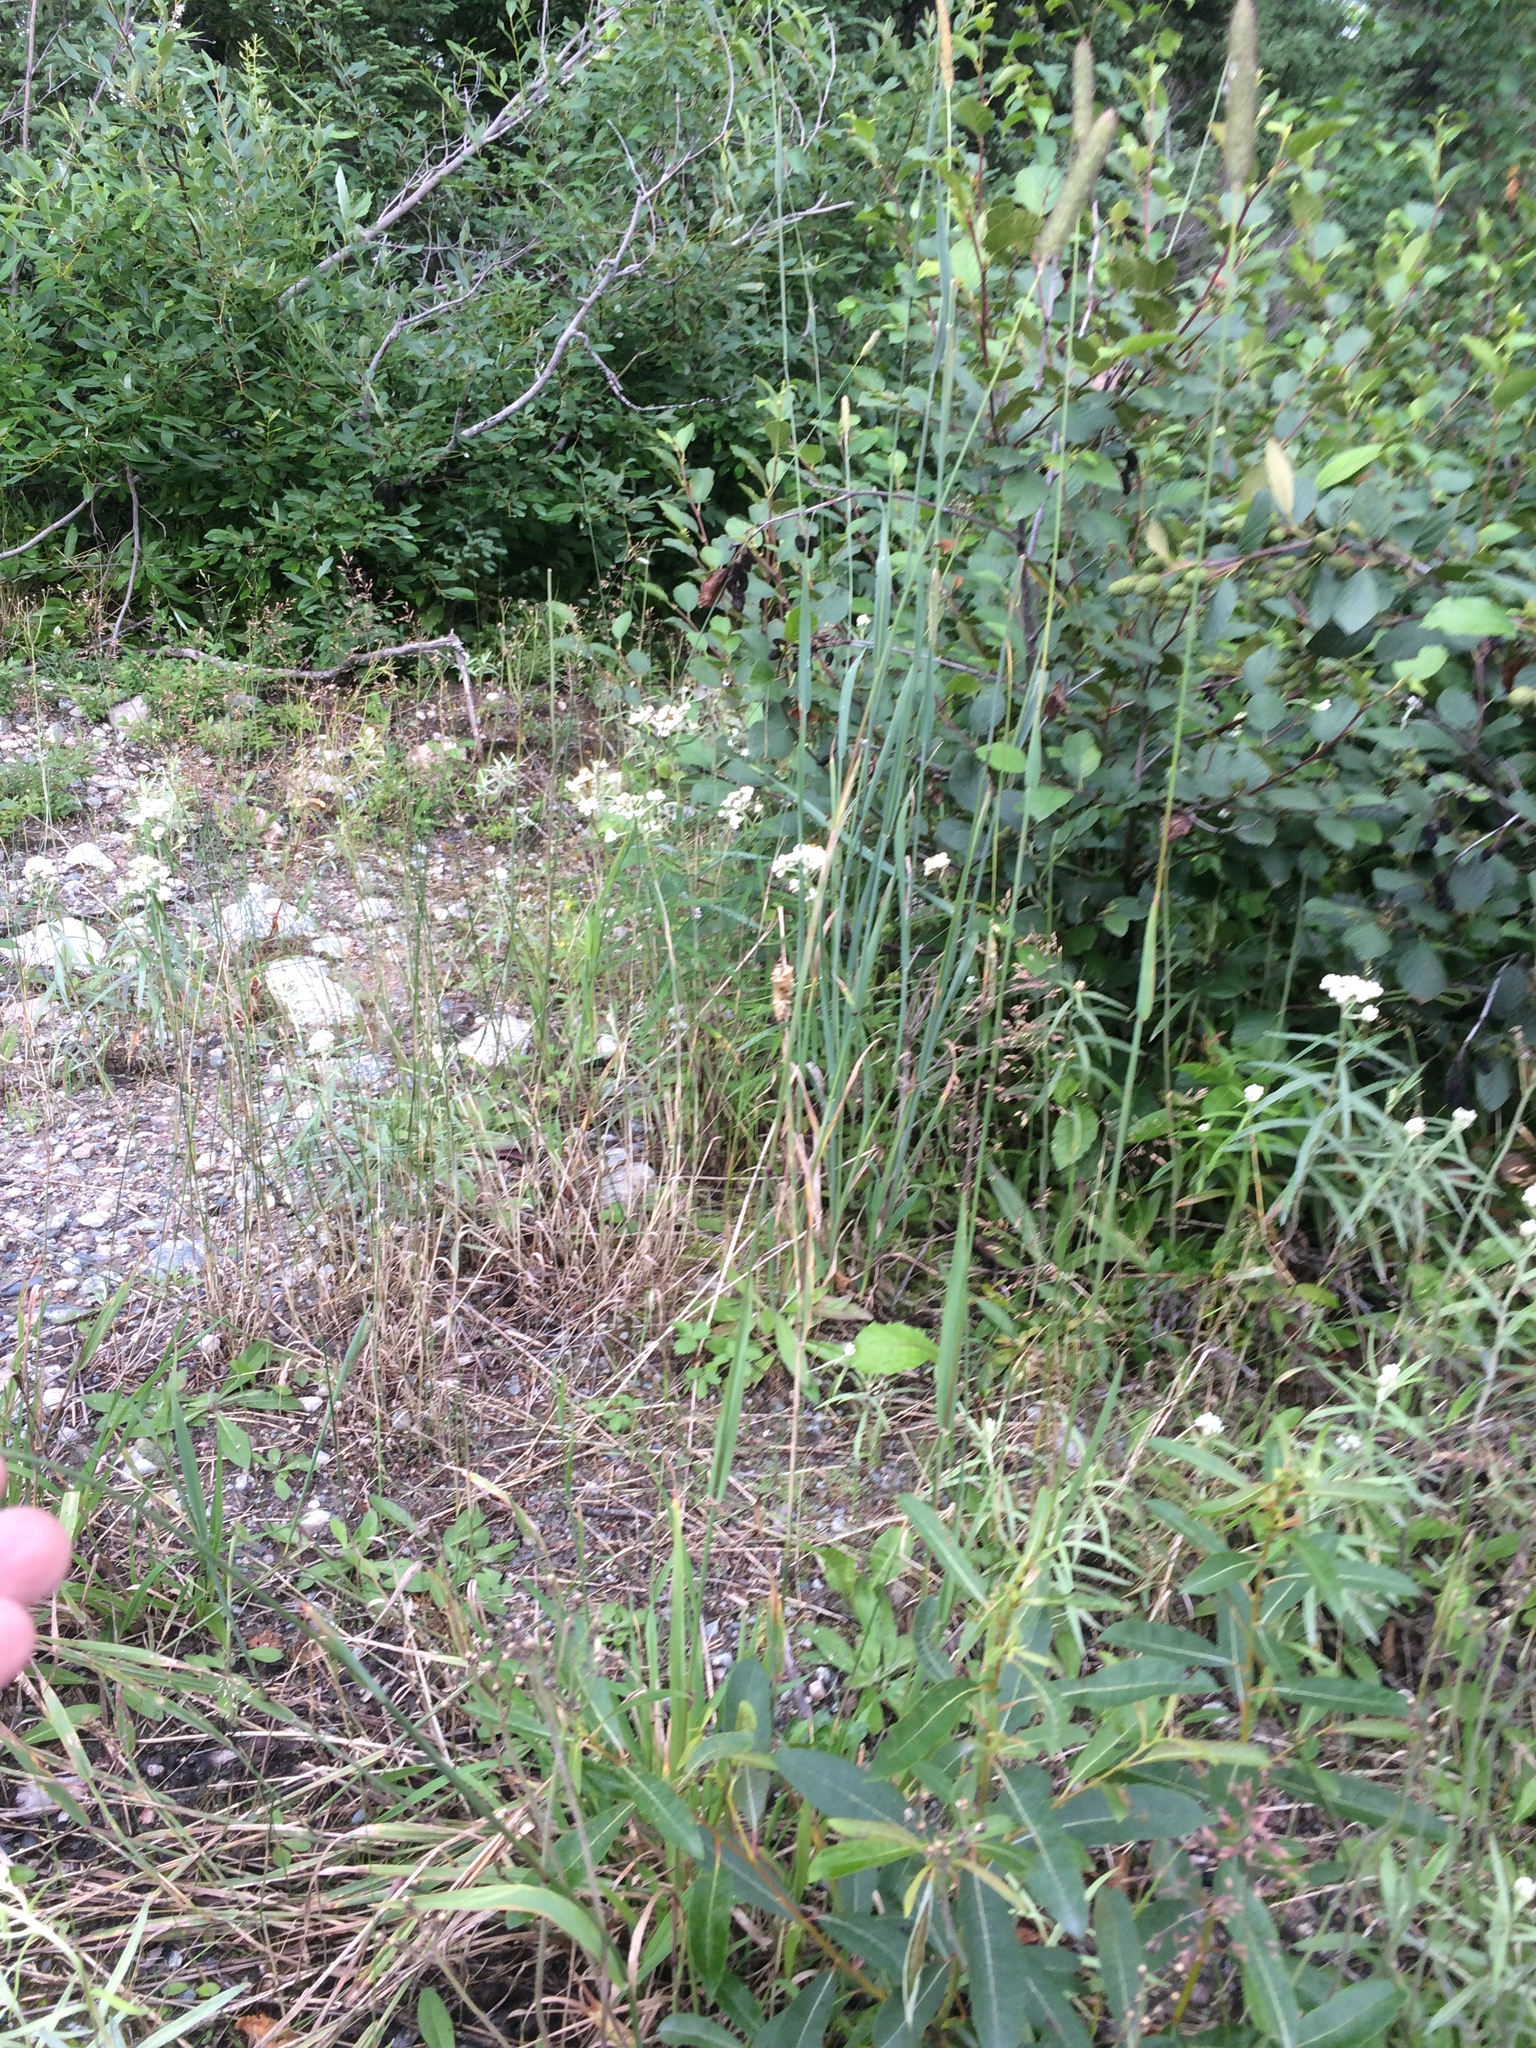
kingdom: Plantae
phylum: Tracheophyta
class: Liliopsida
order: Poales
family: Poaceae
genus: Phleum
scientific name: Phleum pratense
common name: Timothy grass
